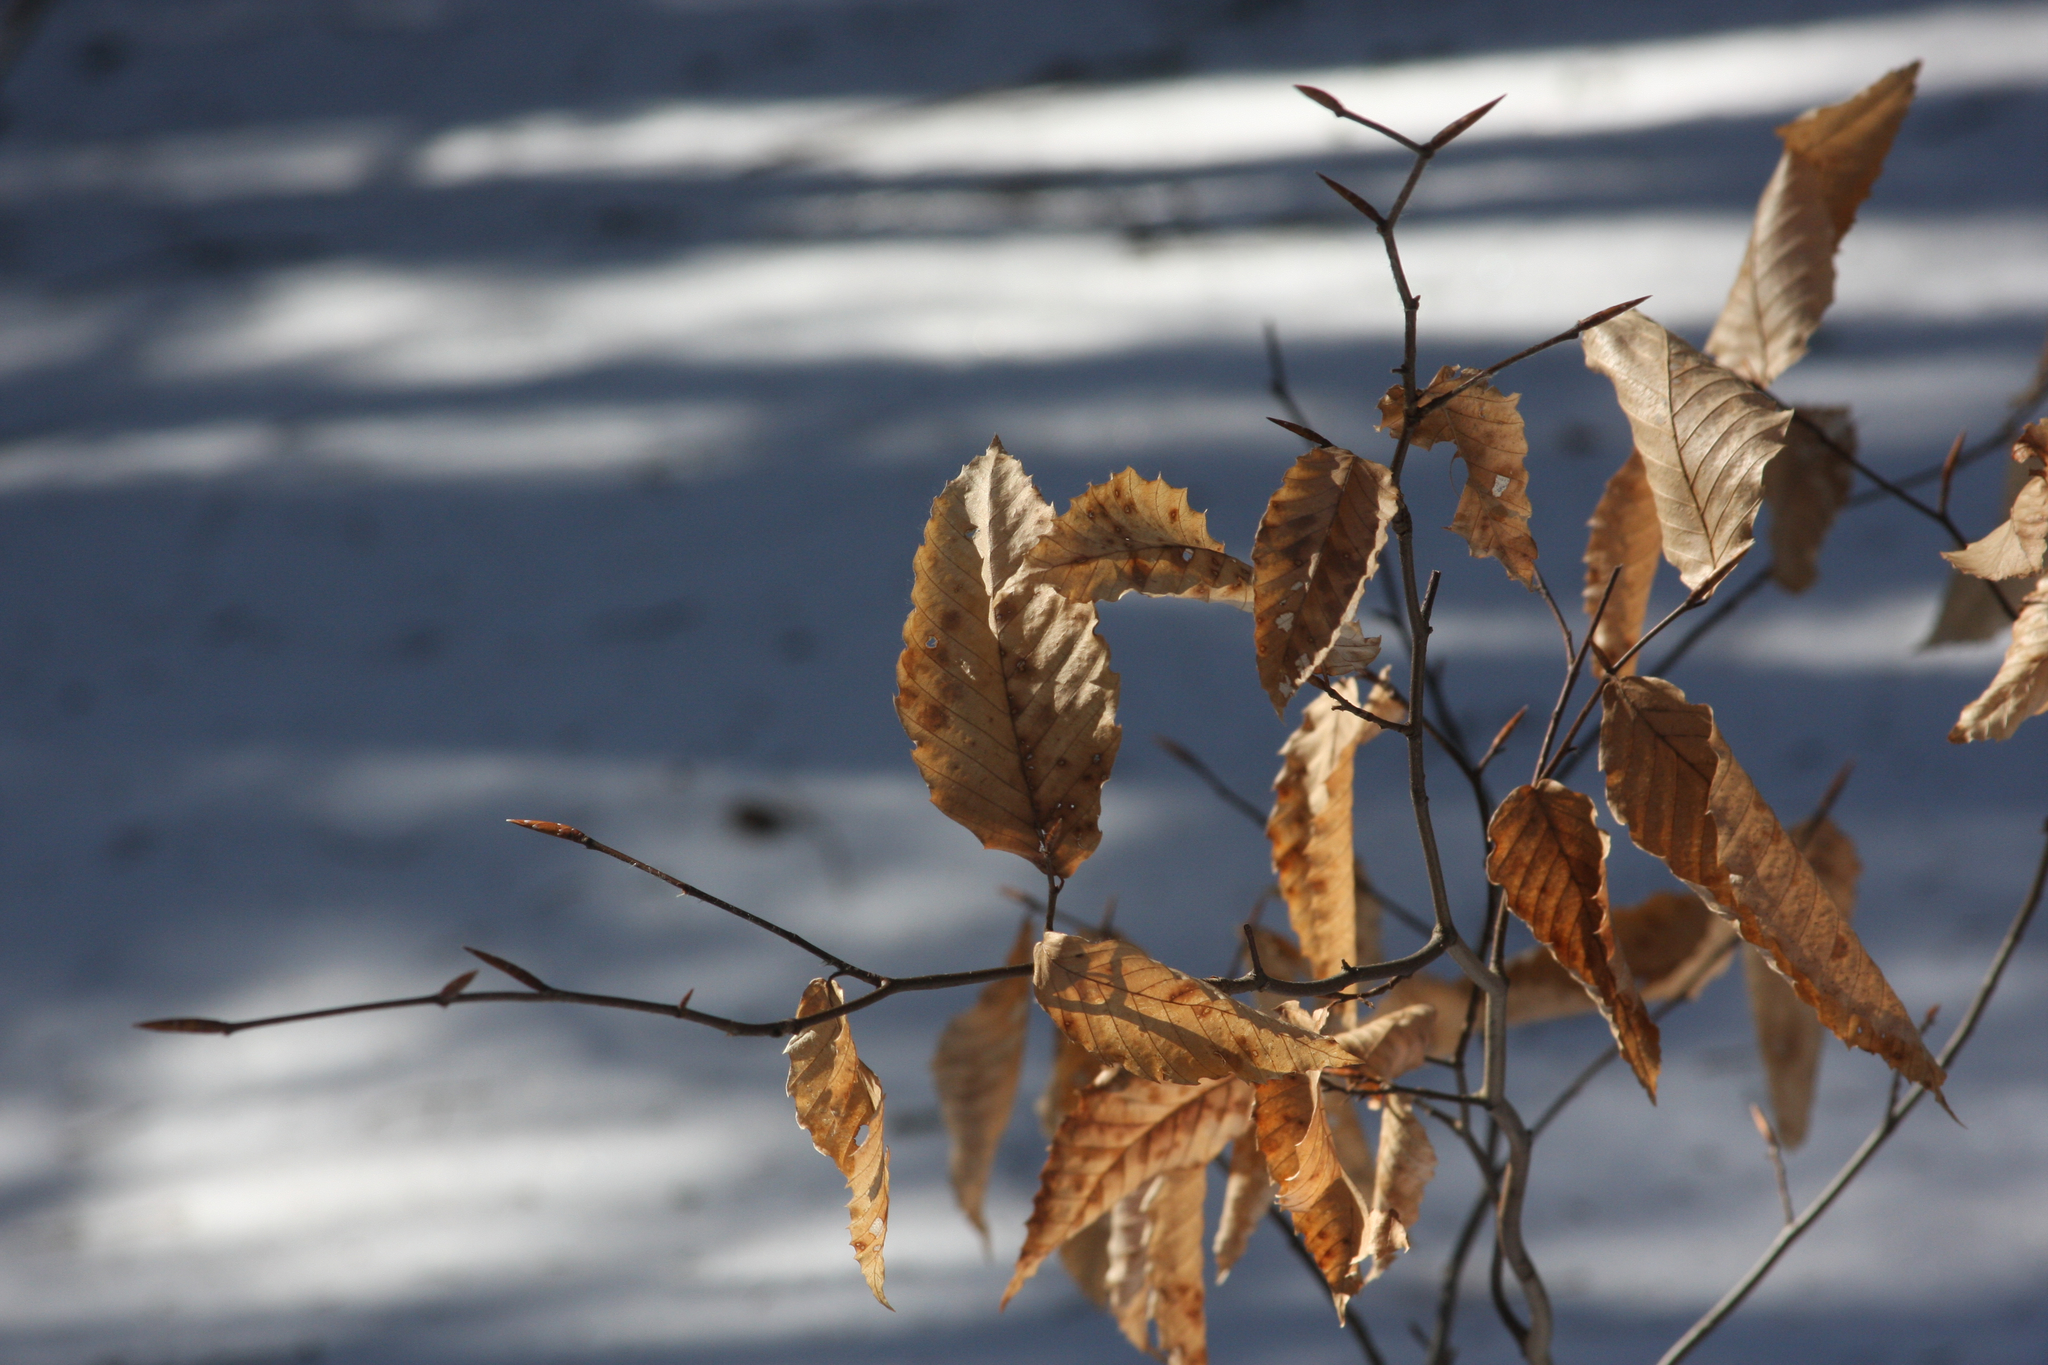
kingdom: Plantae
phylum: Tracheophyta
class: Magnoliopsida
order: Fagales
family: Fagaceae
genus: Fagus
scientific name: Fagus grandifolia
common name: American beech
